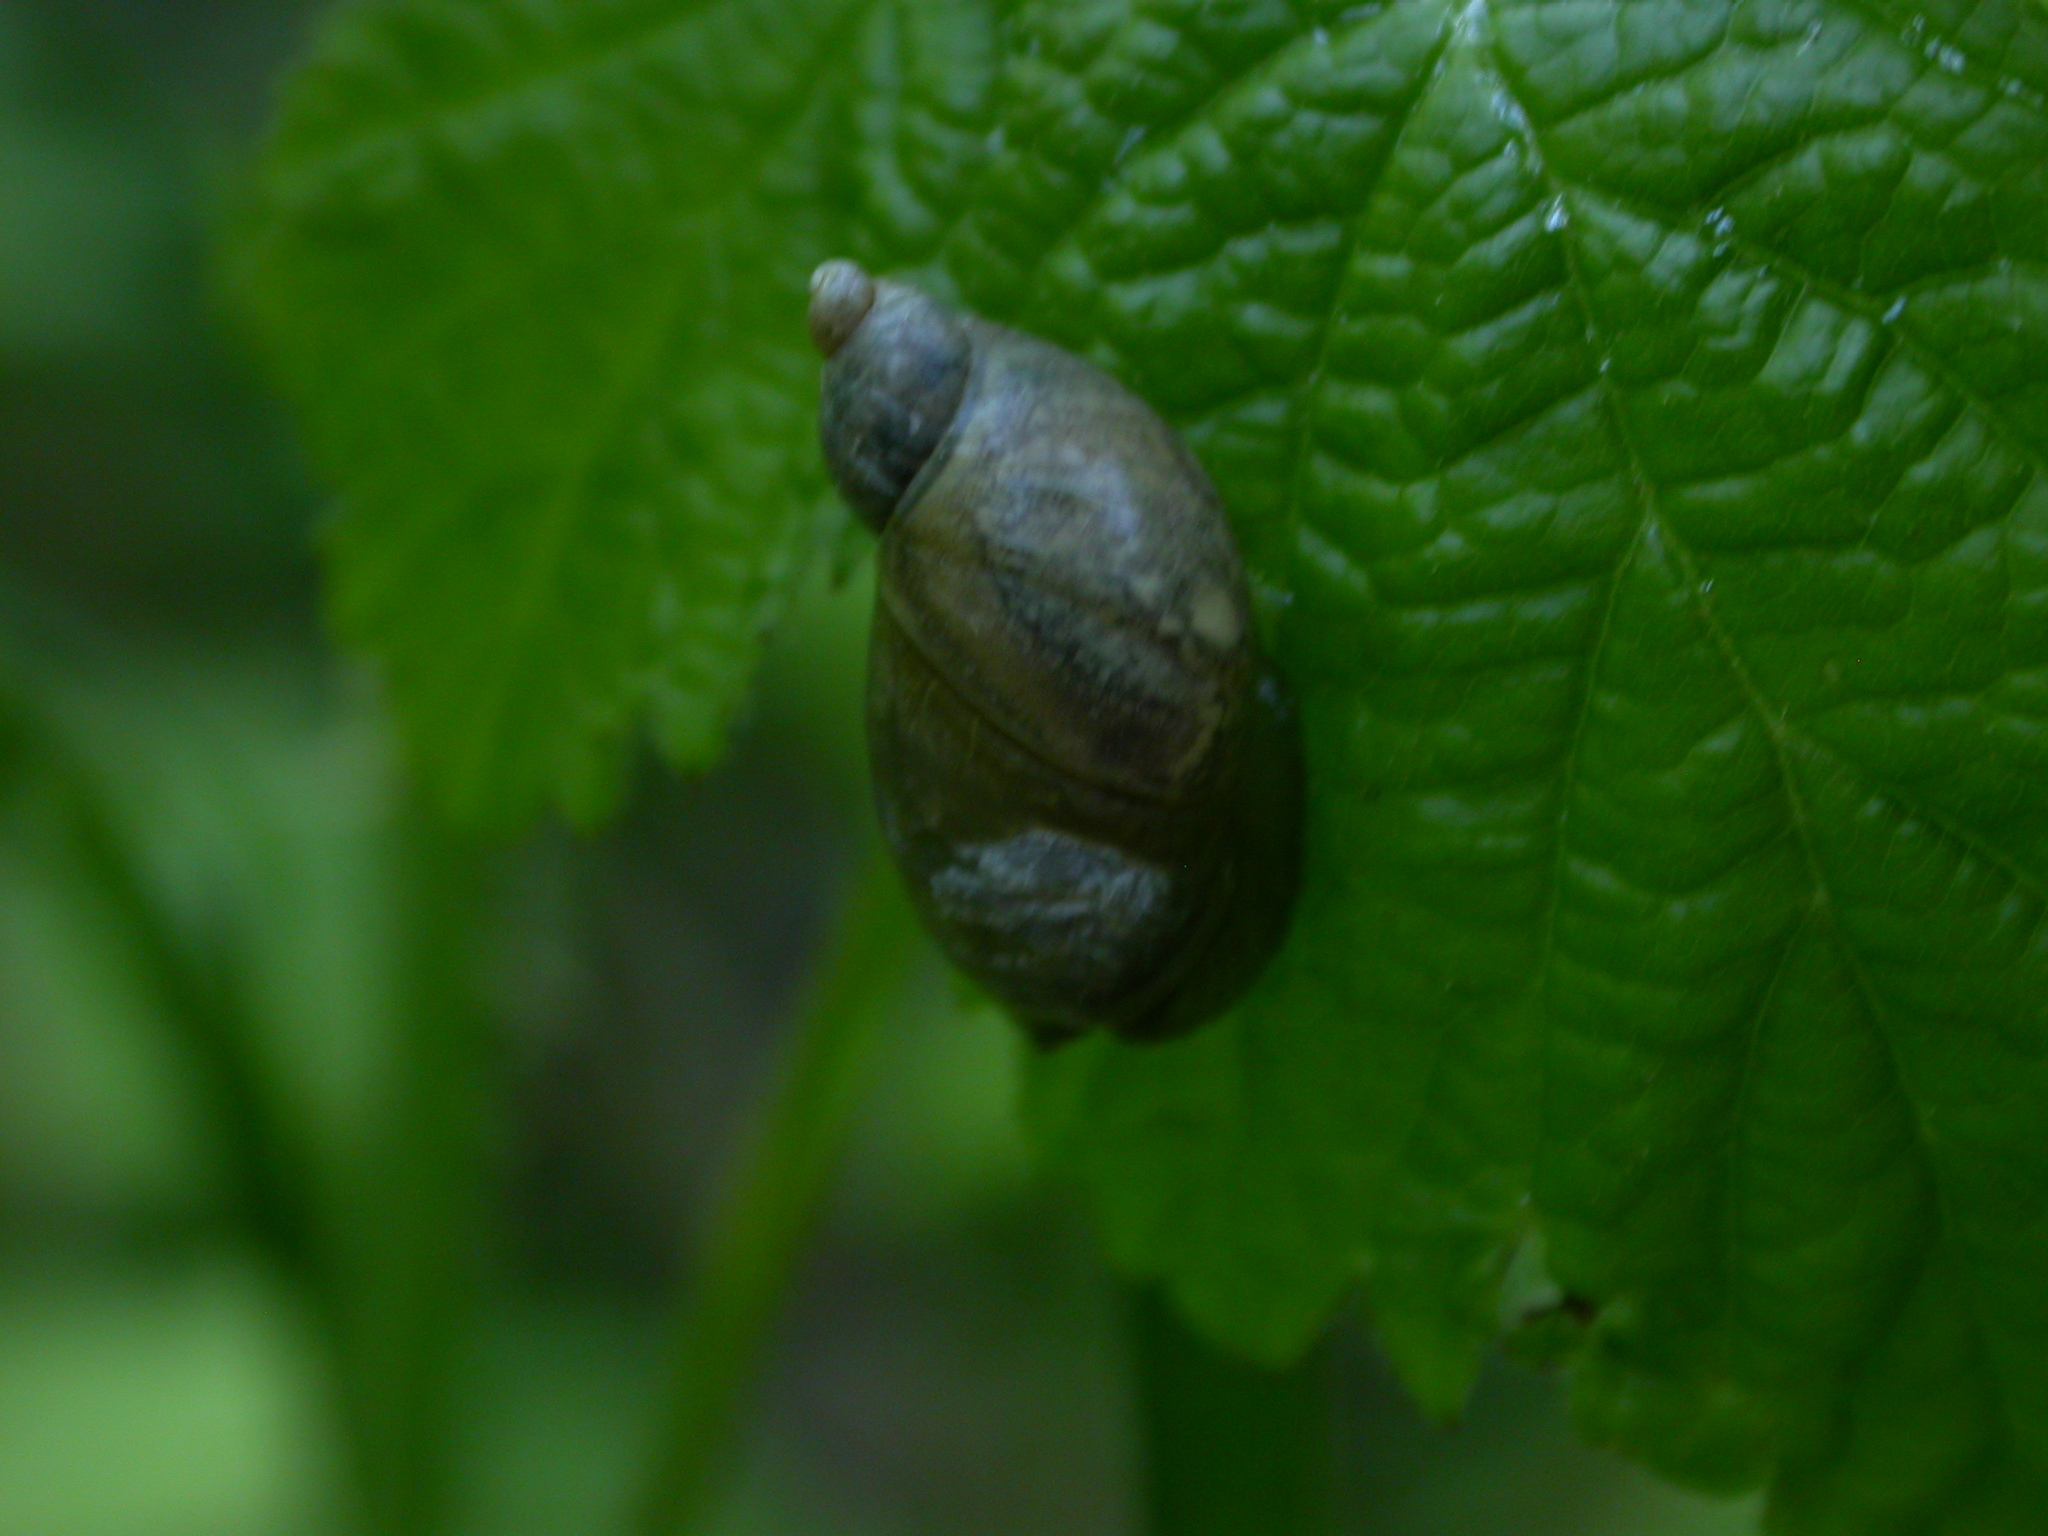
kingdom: Animalia
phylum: Mollusca
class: Gastropoda
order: Stylommatophora
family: Succineidae
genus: Oxyloma
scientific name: Oxyloma elegans
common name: Pfeiffer's amber snail
